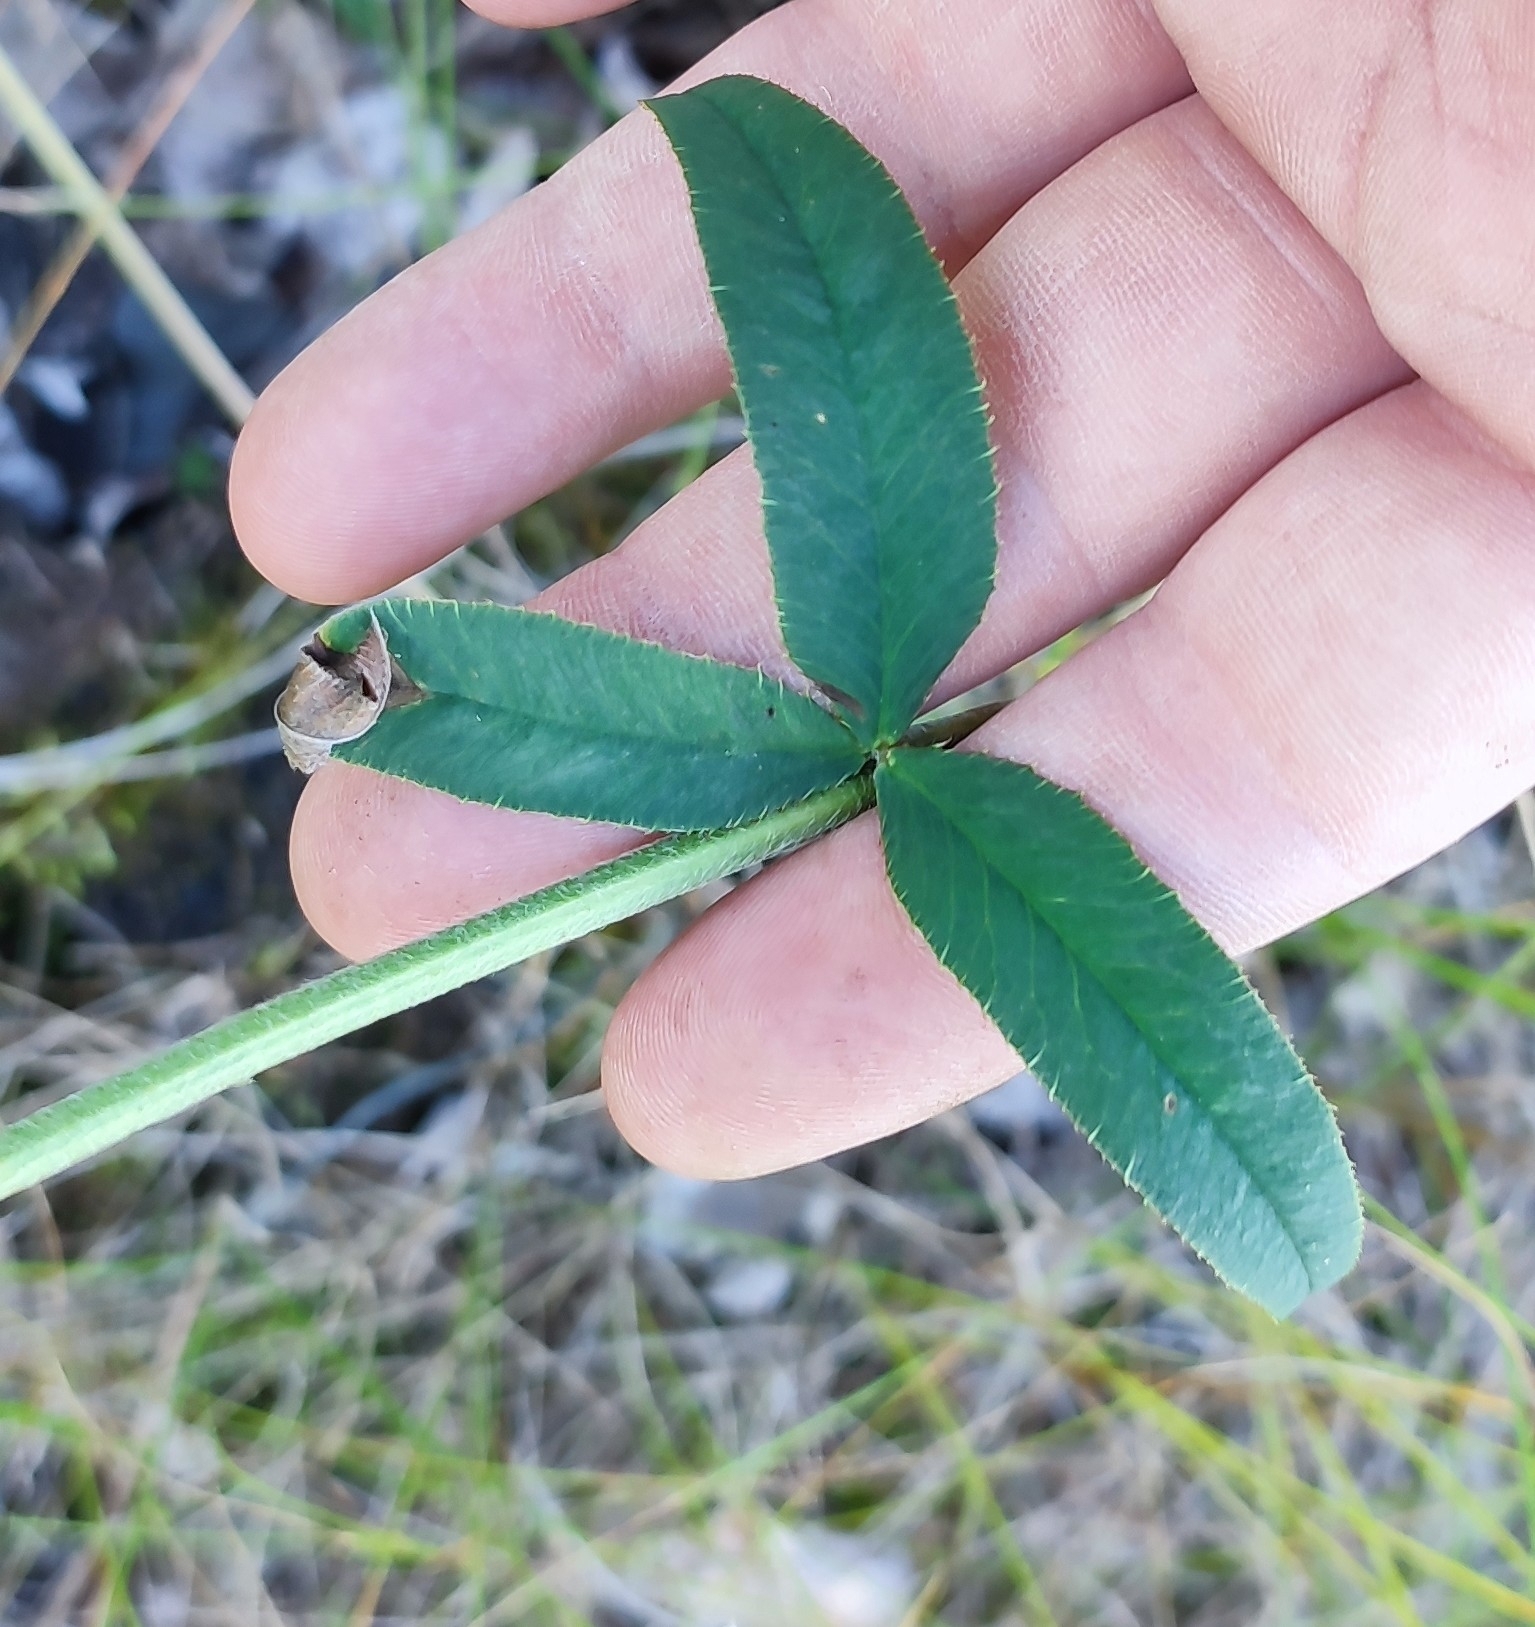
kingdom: Plantae
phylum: Tracheophyta
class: Magnoliopsida
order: Fabales
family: Fabaceae
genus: Trifolium
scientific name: Trifolium montanum
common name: Mountain clover
